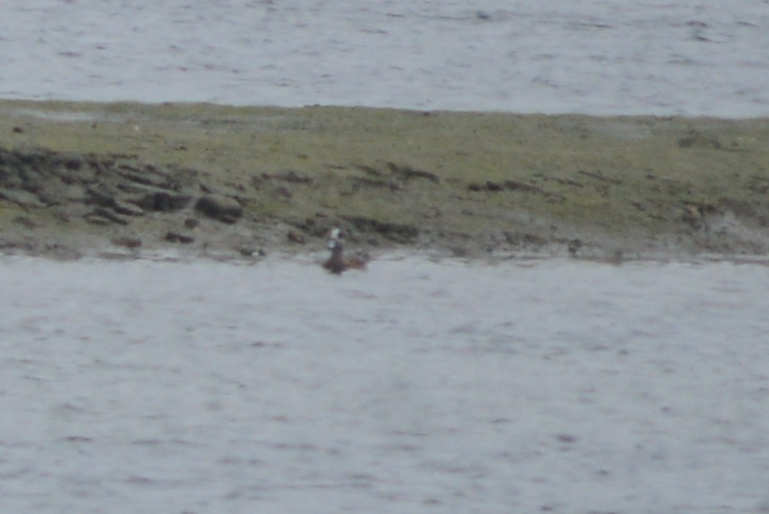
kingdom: Animalia
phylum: Chordata
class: Aves
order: Anseriformes
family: Anatidae
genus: Mareca
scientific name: Mareca americana
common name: American wigeon
